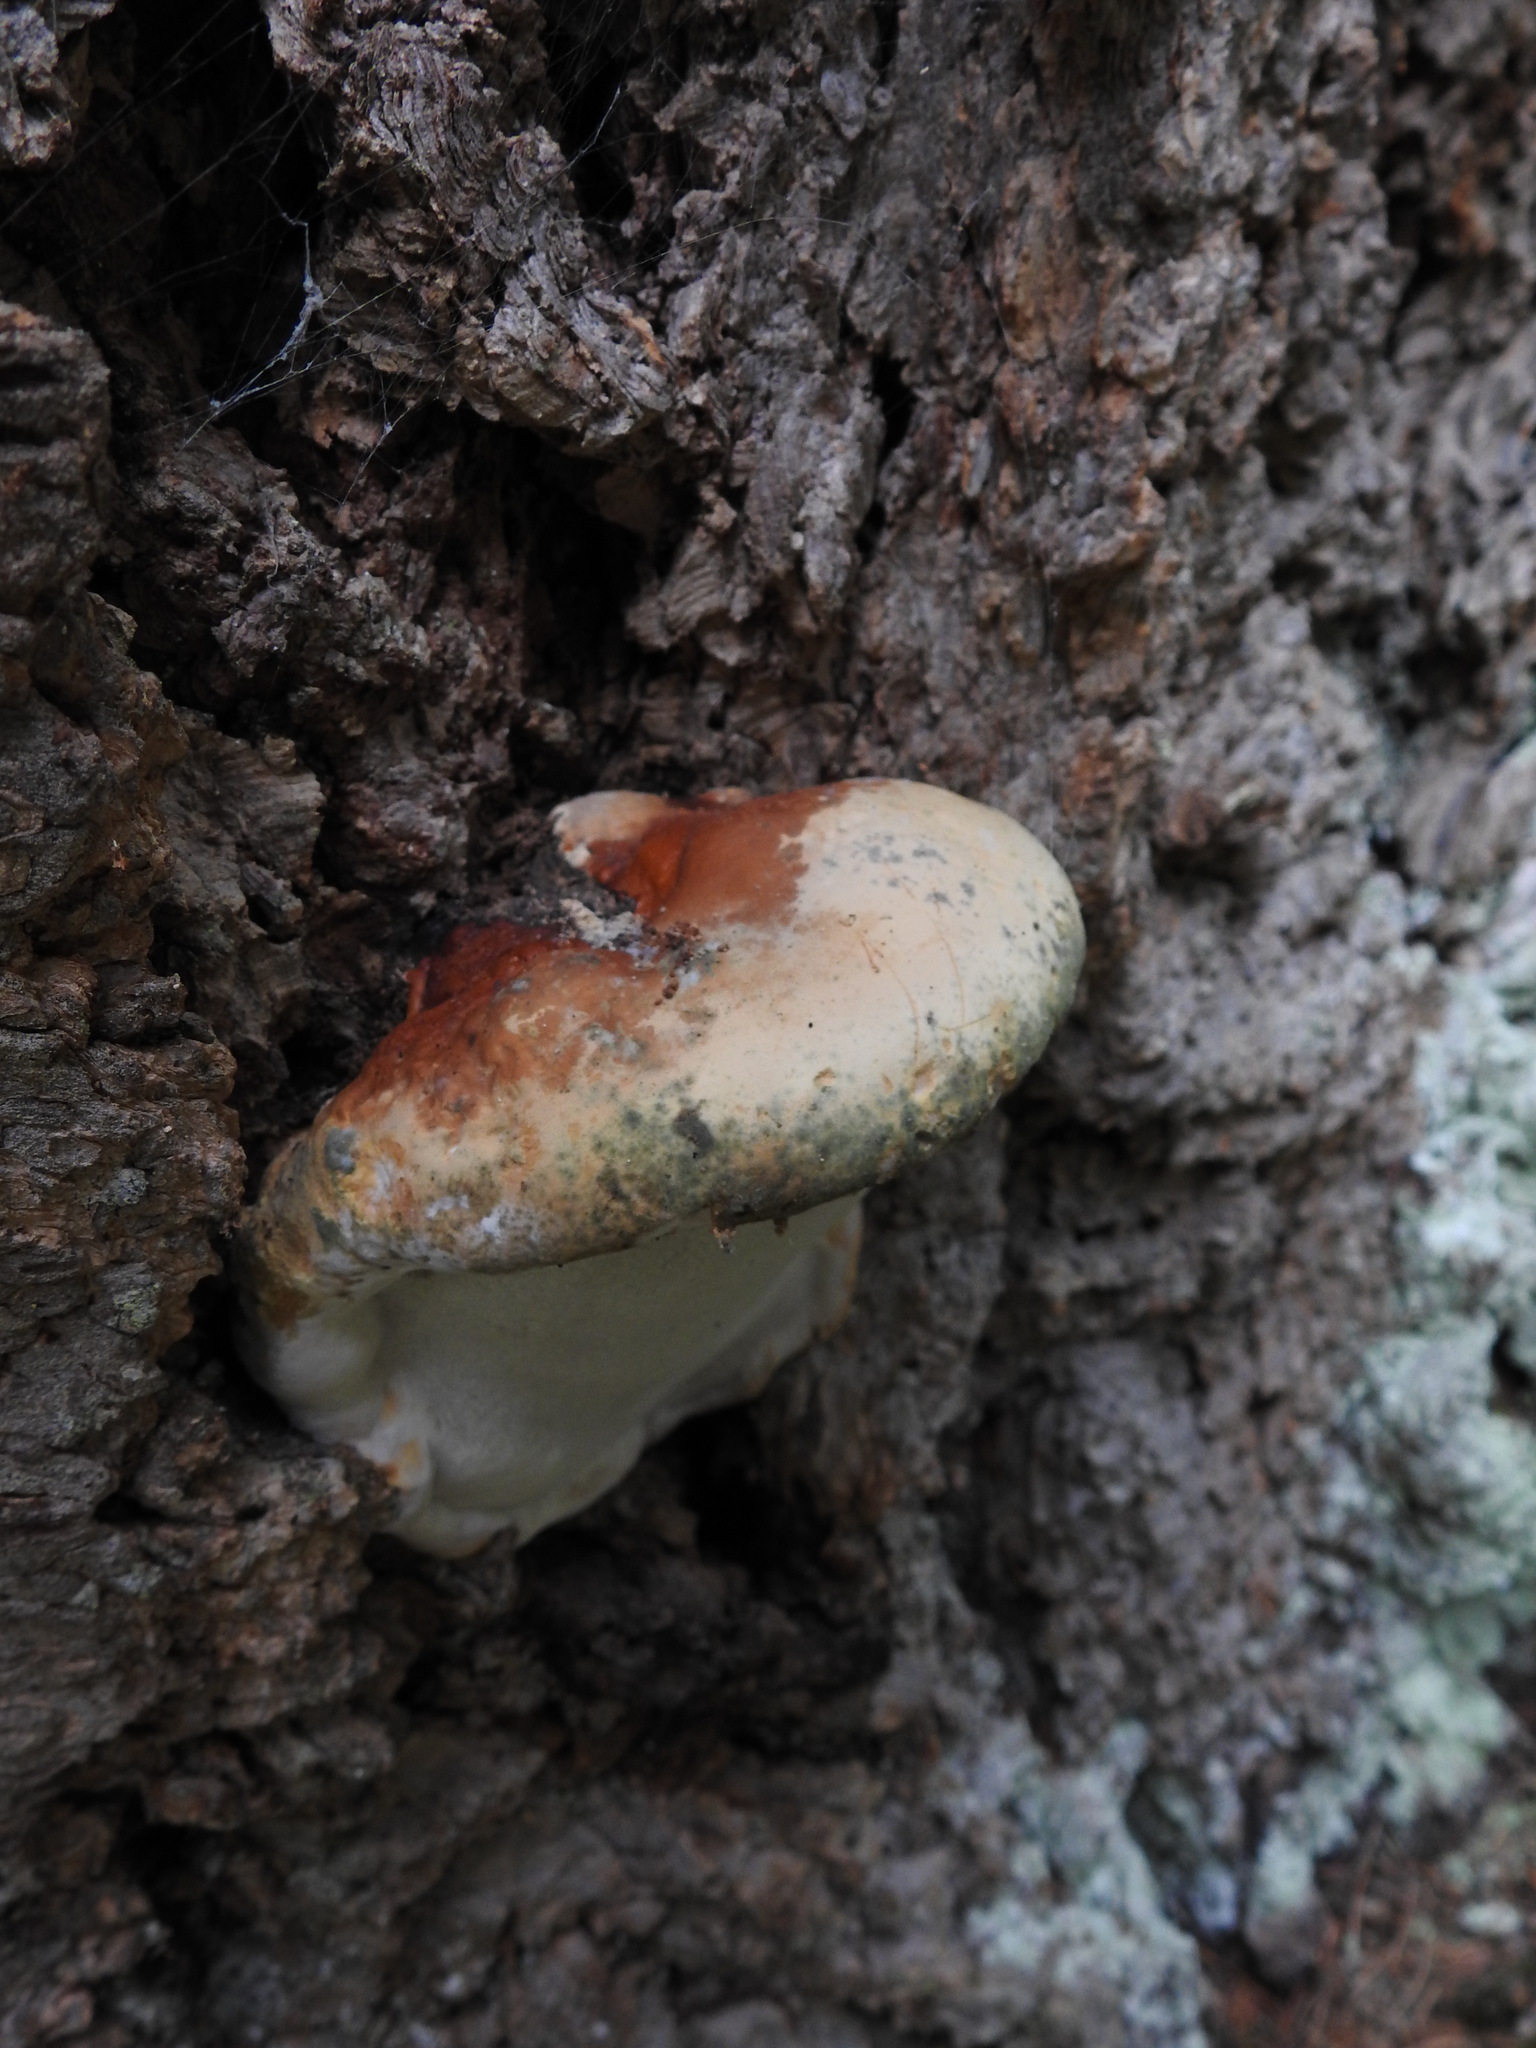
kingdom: Fungi
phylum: Basidiomycota
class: Agaricomycetes
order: Polyporales
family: Fomitopsidaceae
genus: Fomitopsis
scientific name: Fomitopsis mounceae
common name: Northern red belt
